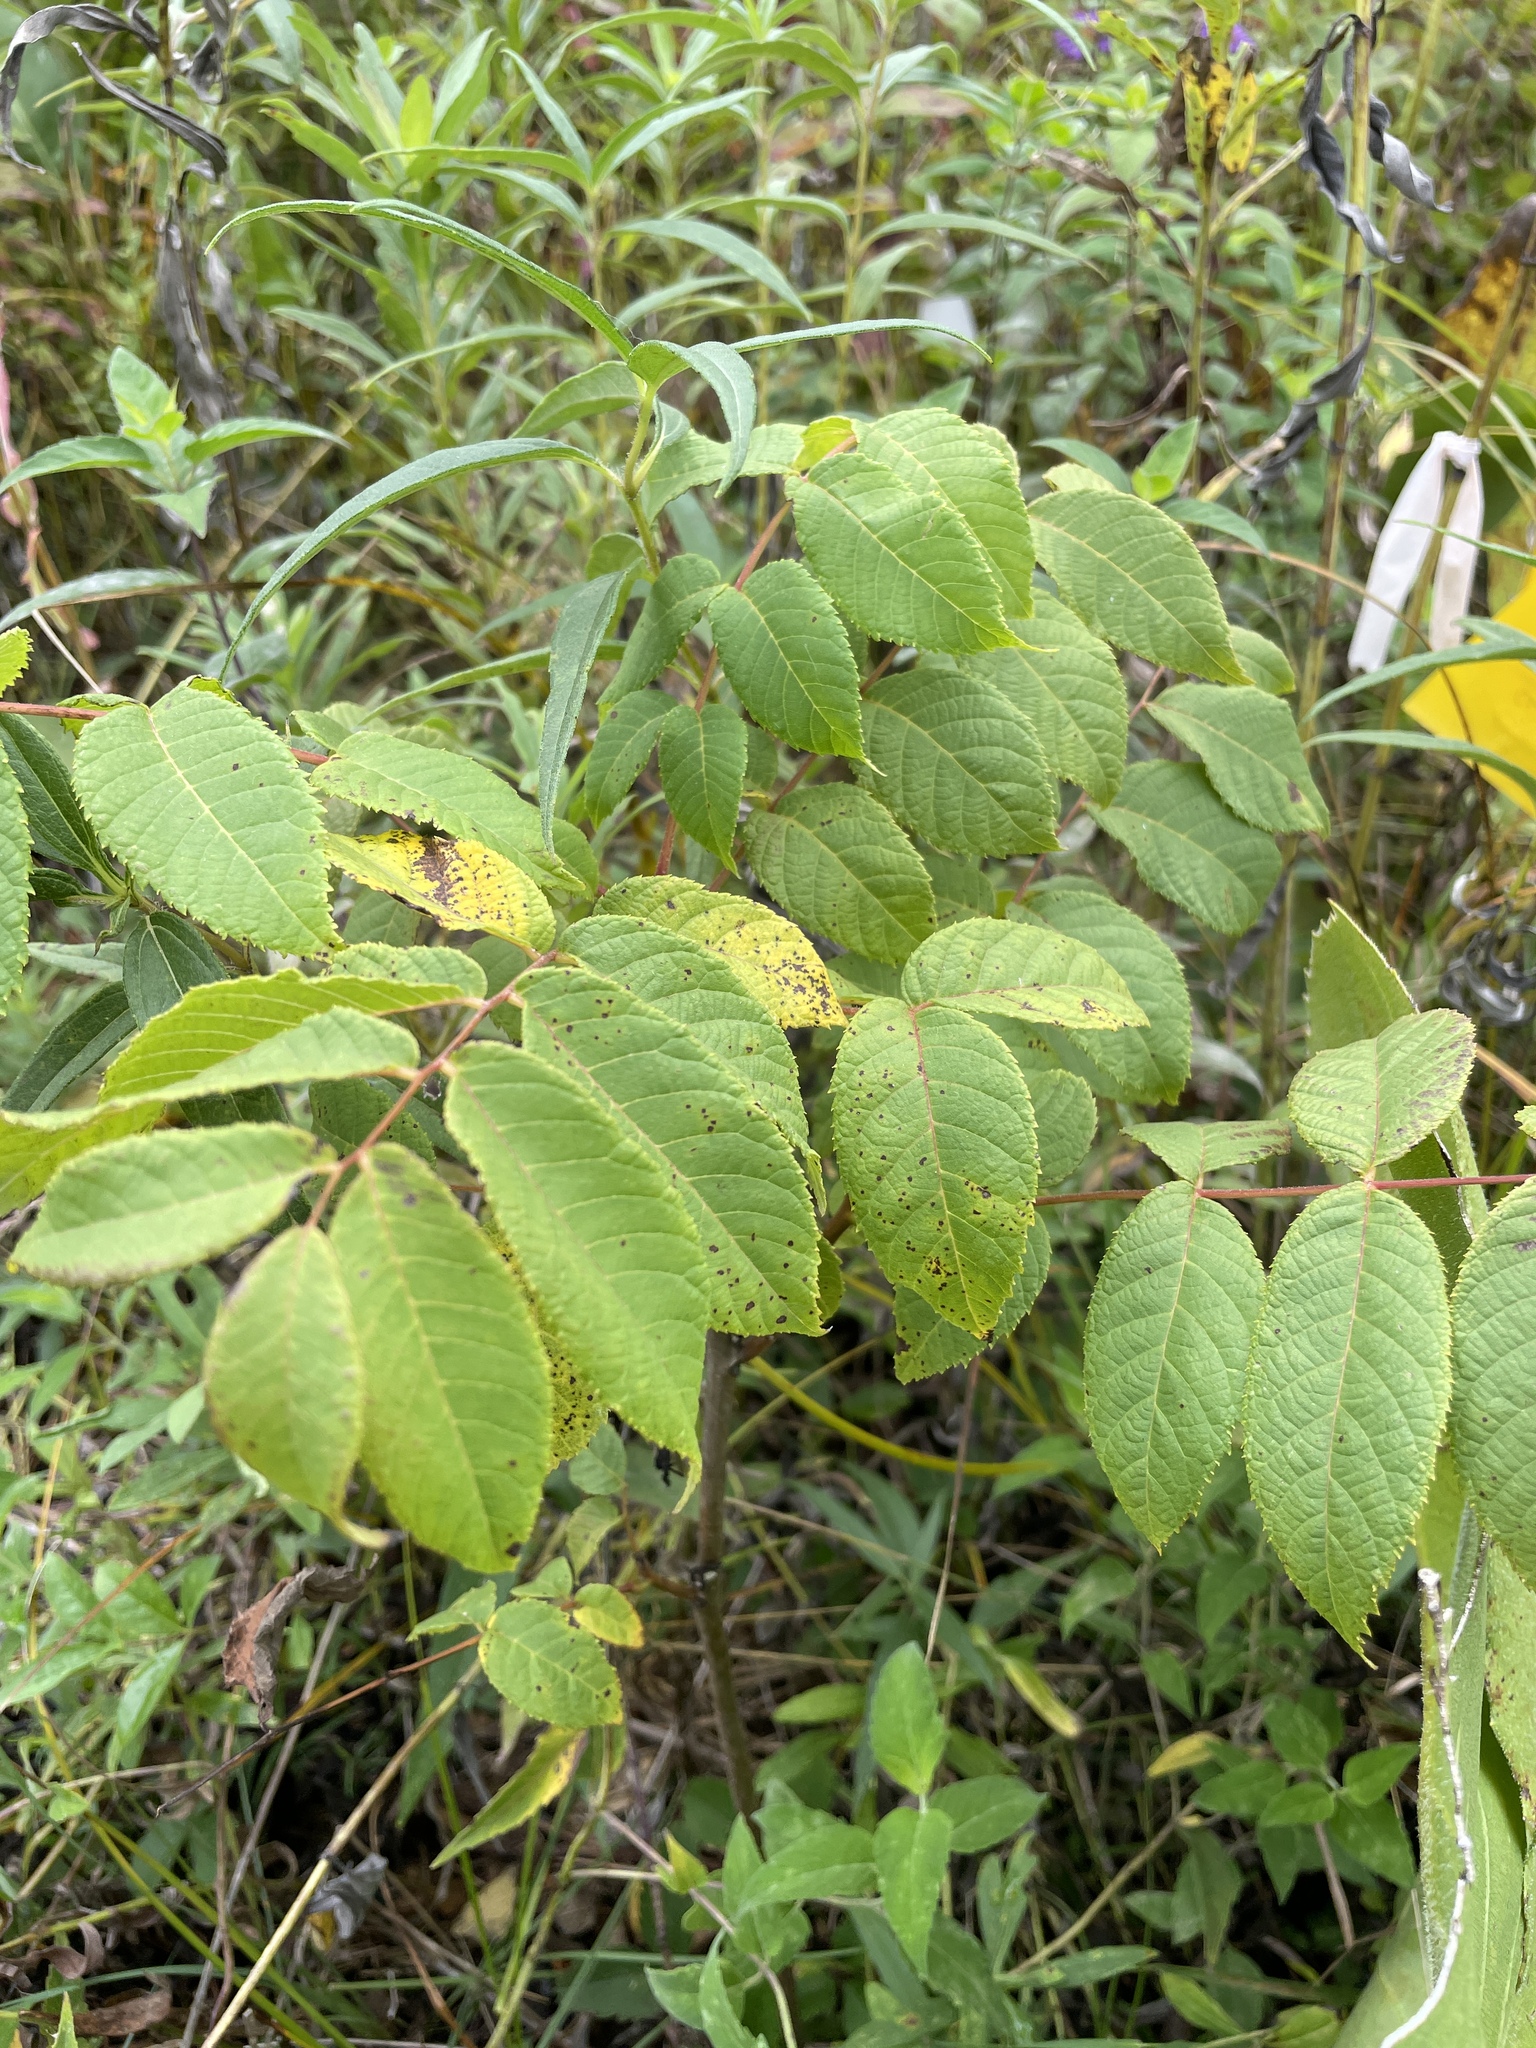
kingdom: Plantae
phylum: Tracheophyta
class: Magnoliopsida
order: Fagales
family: Juglandaceae
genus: Juglans
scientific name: Juglans nigra
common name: Black walnut
